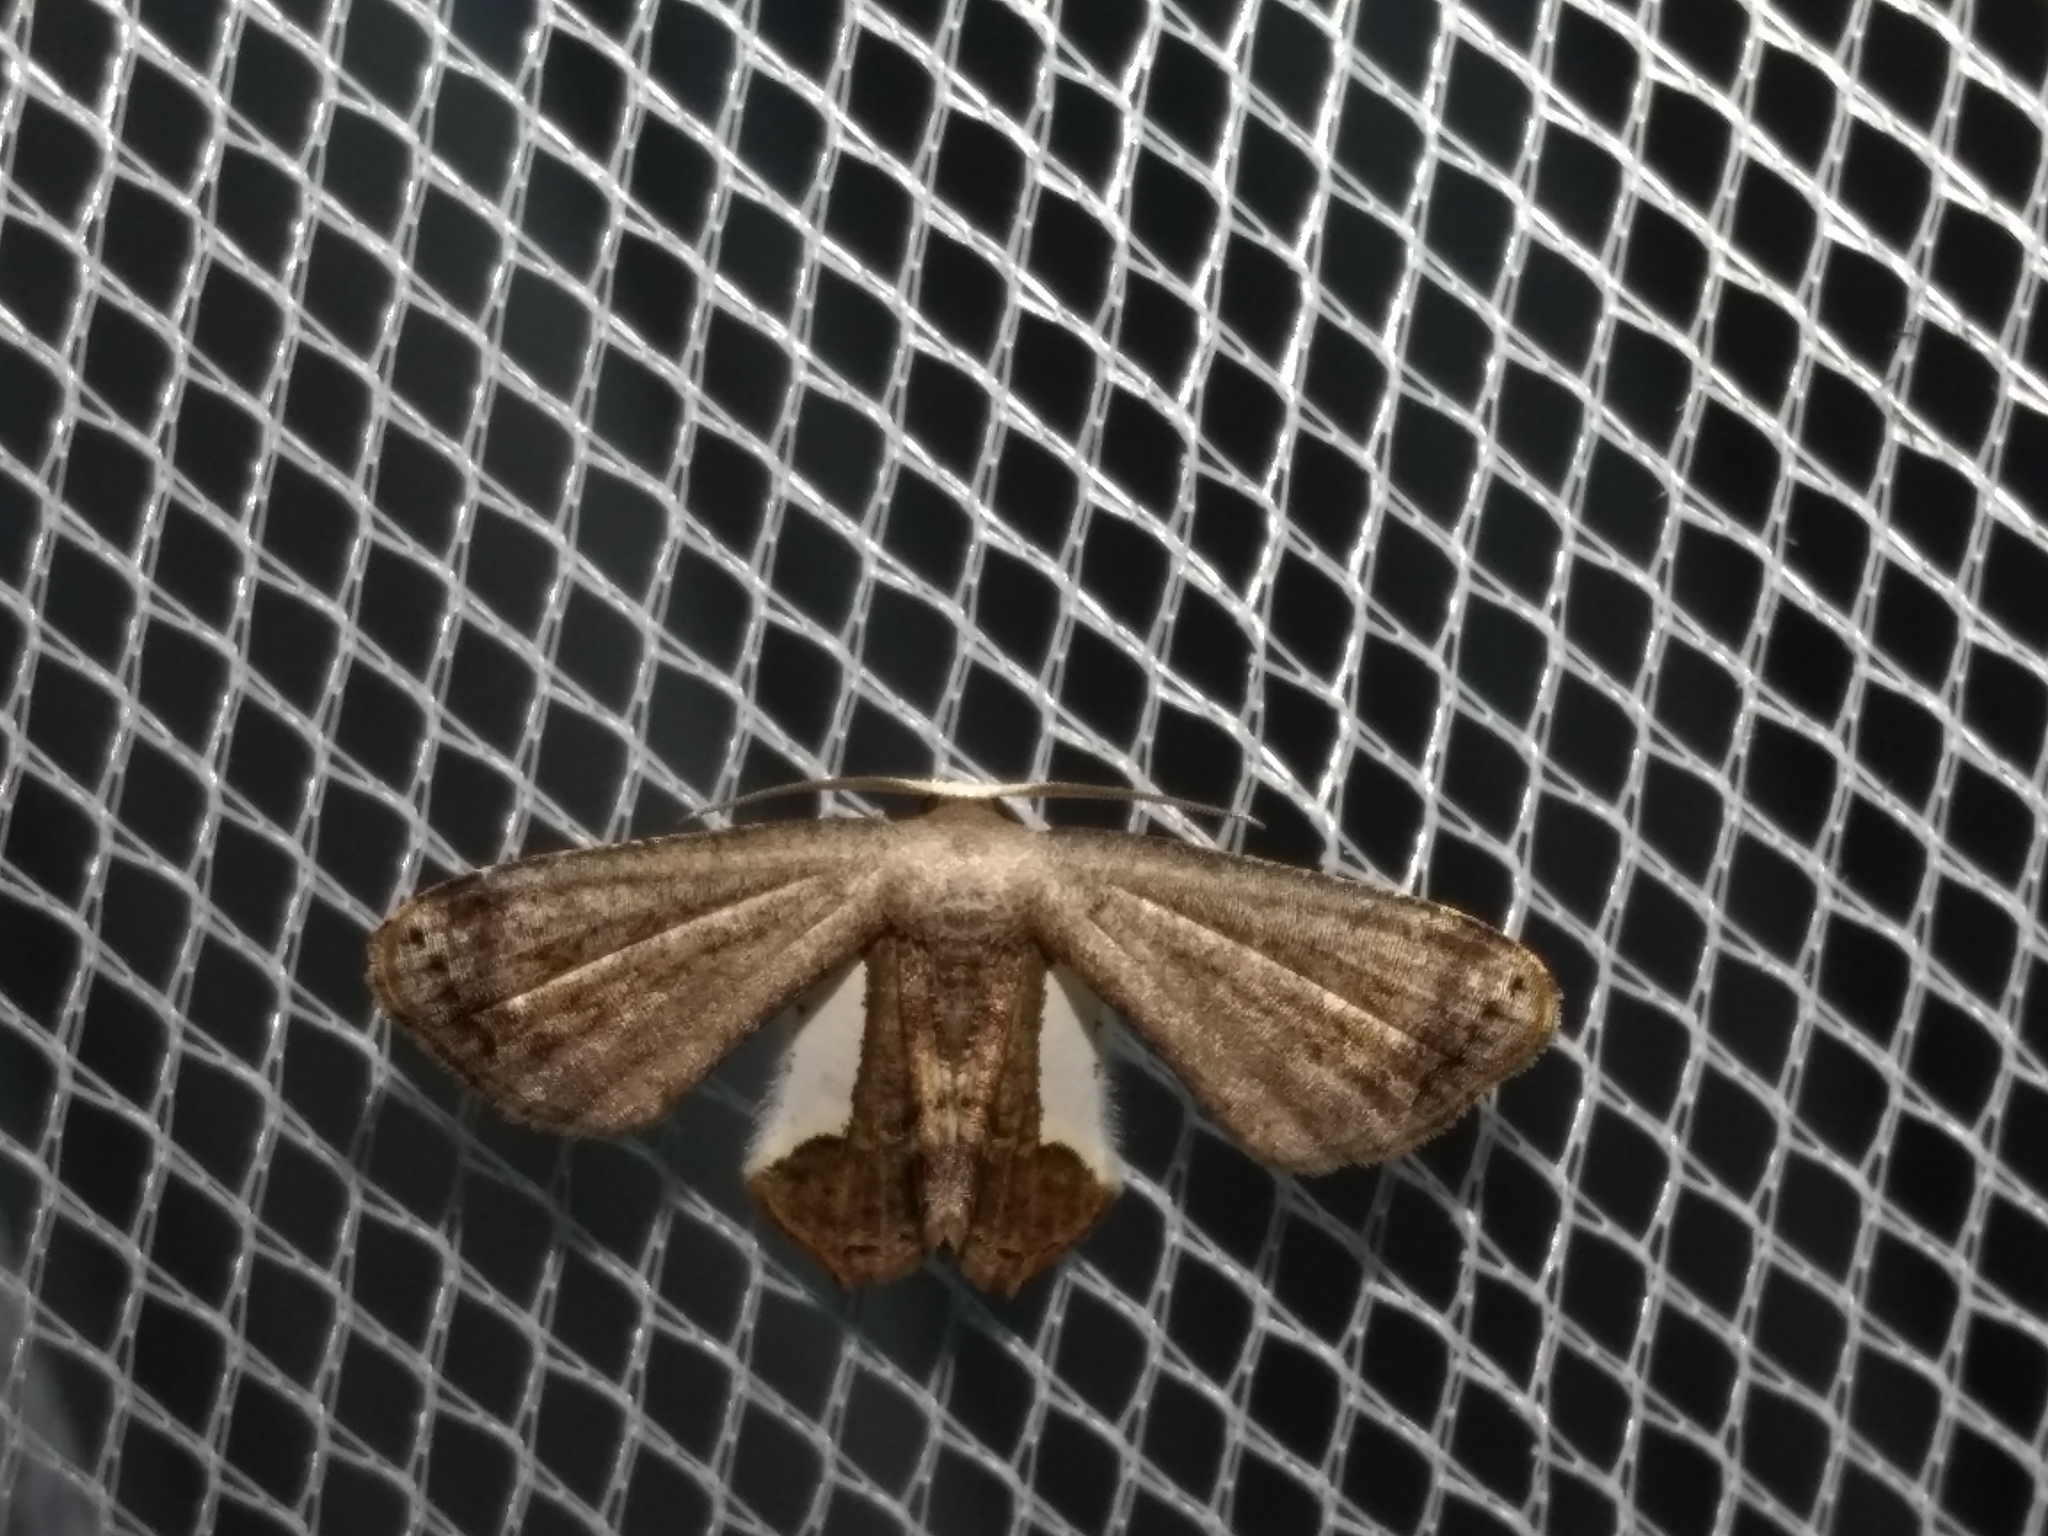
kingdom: Animalia
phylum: Arthropoda
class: Insecta
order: Lepidoptera
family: Uraniidae
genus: Phazaca
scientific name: Phazaca decorata
